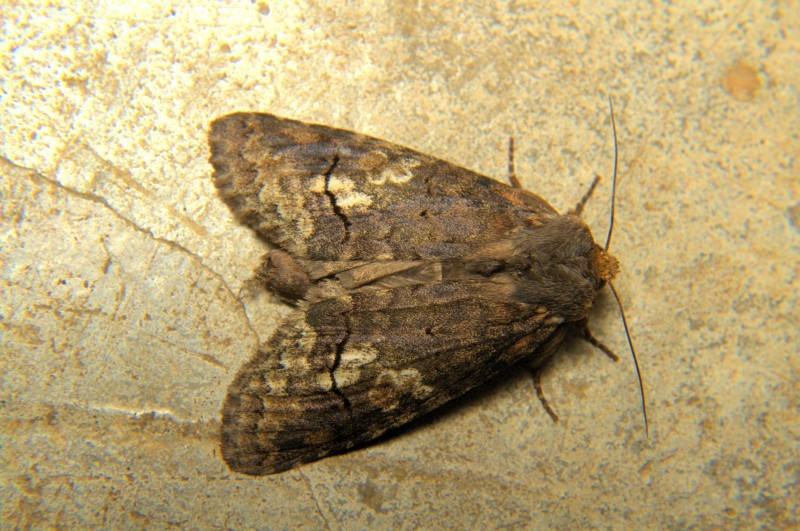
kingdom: Animalia
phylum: Arthropoda
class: Insecta
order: Lepidoptera
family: Notodontidae
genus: Antiphalera
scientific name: Antiphalera bilineata
